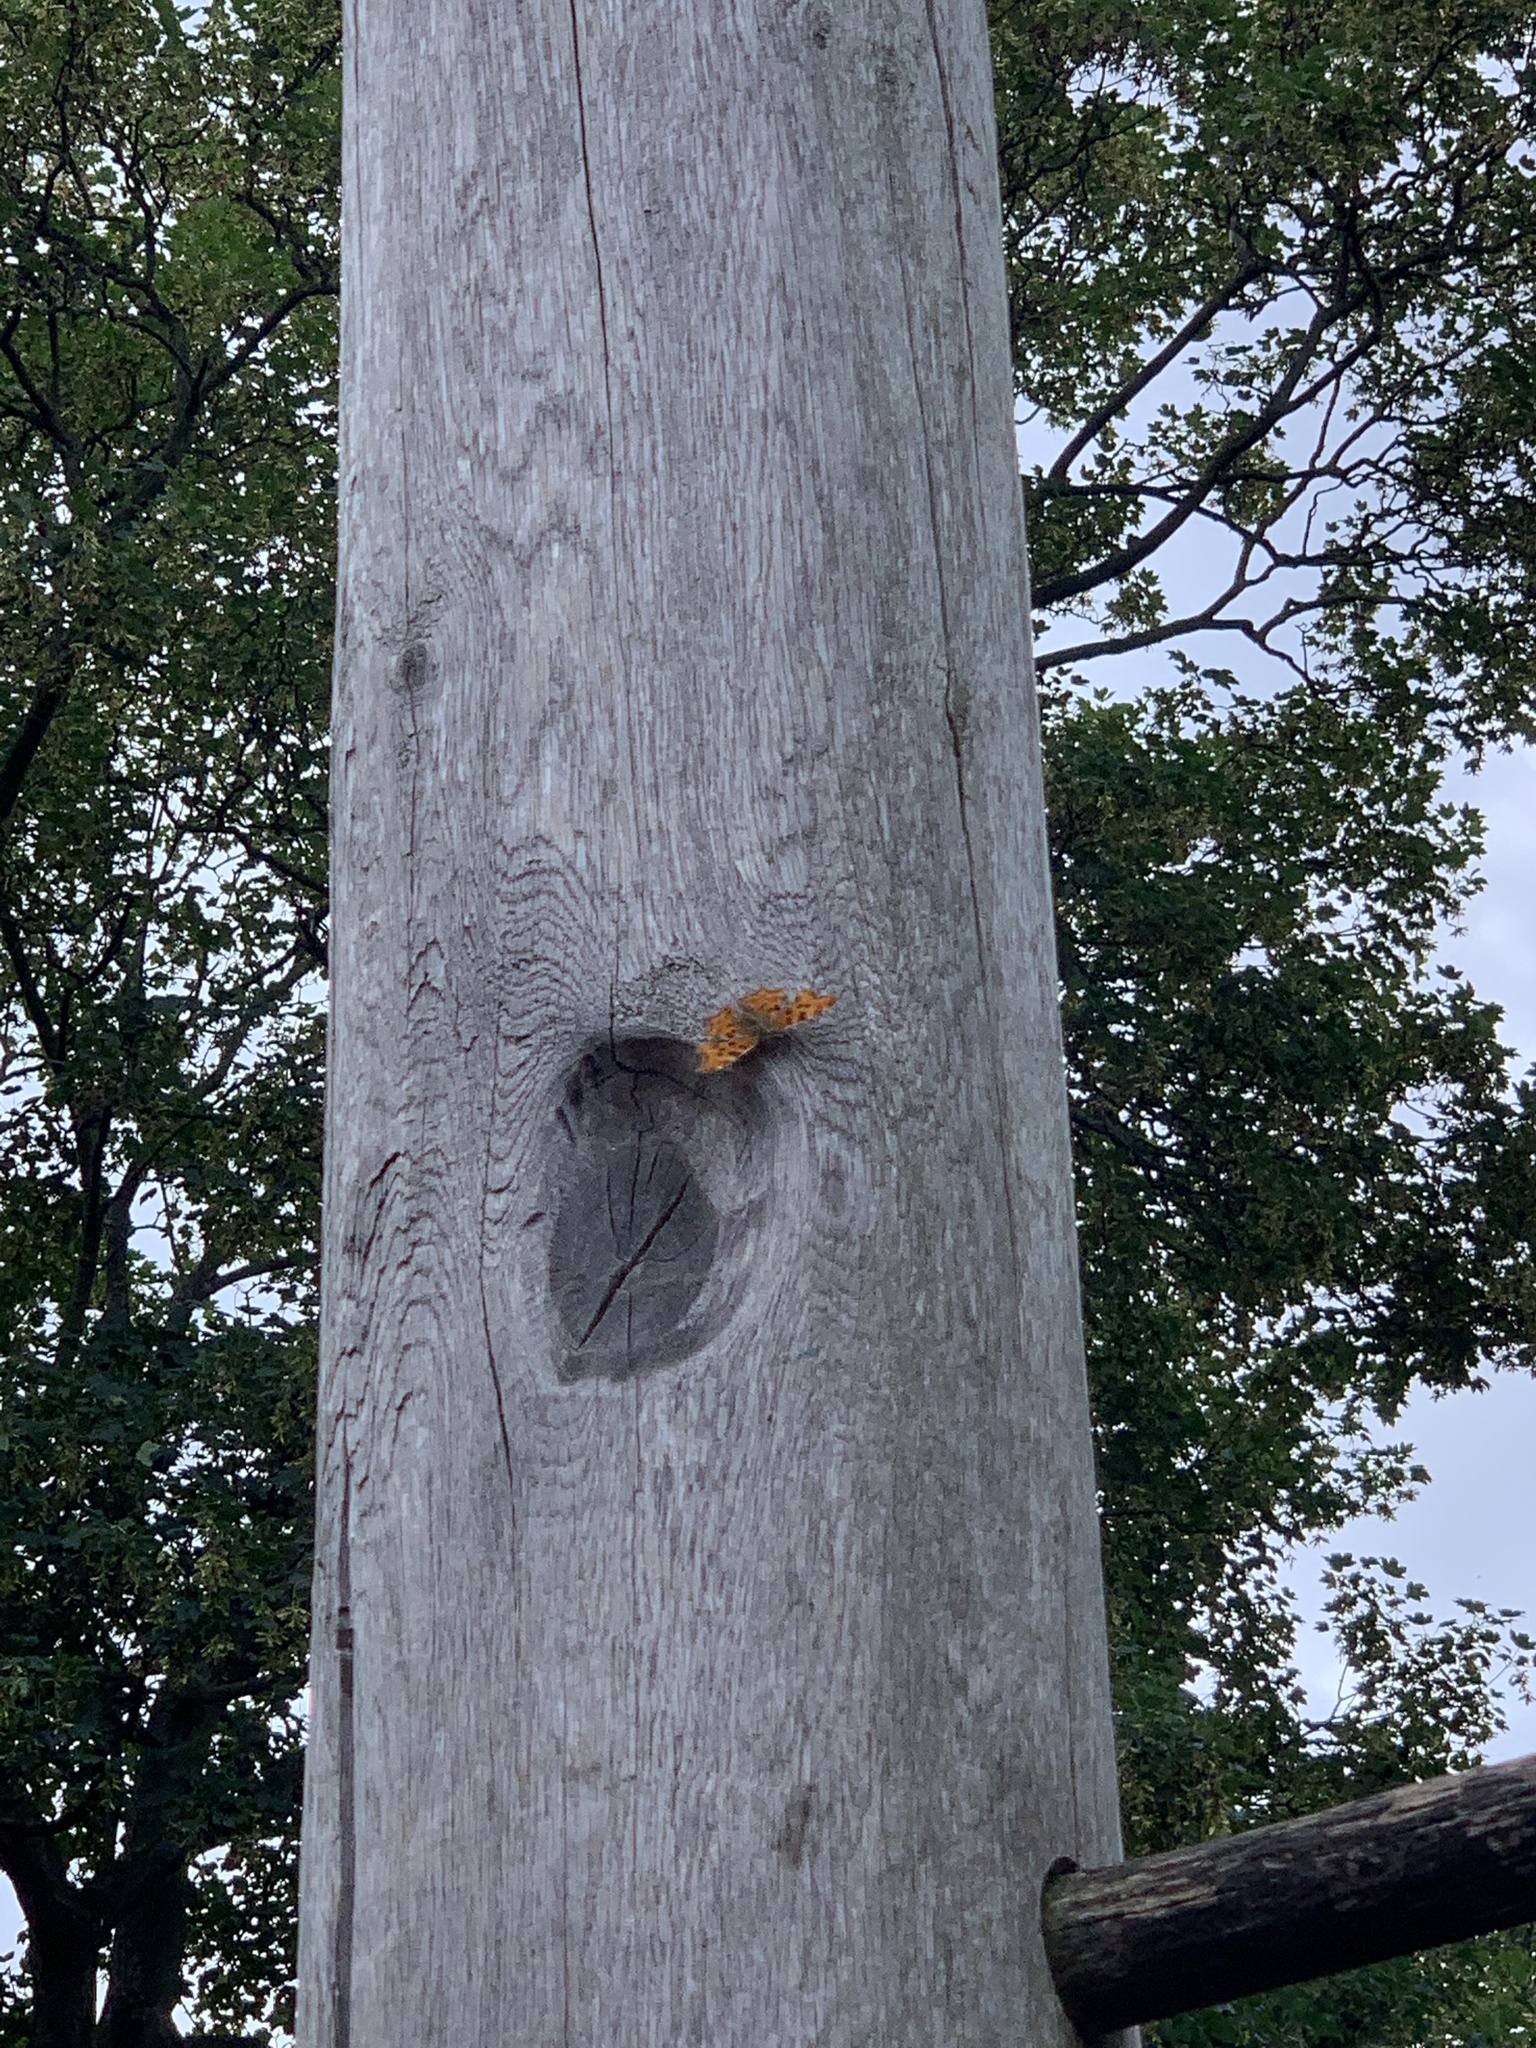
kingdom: Animalia
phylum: Arthropoda
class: Insecta
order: Lepidoptera
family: Nymphalidae
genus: Polygonia
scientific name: Polygonia c-album
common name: Comma
